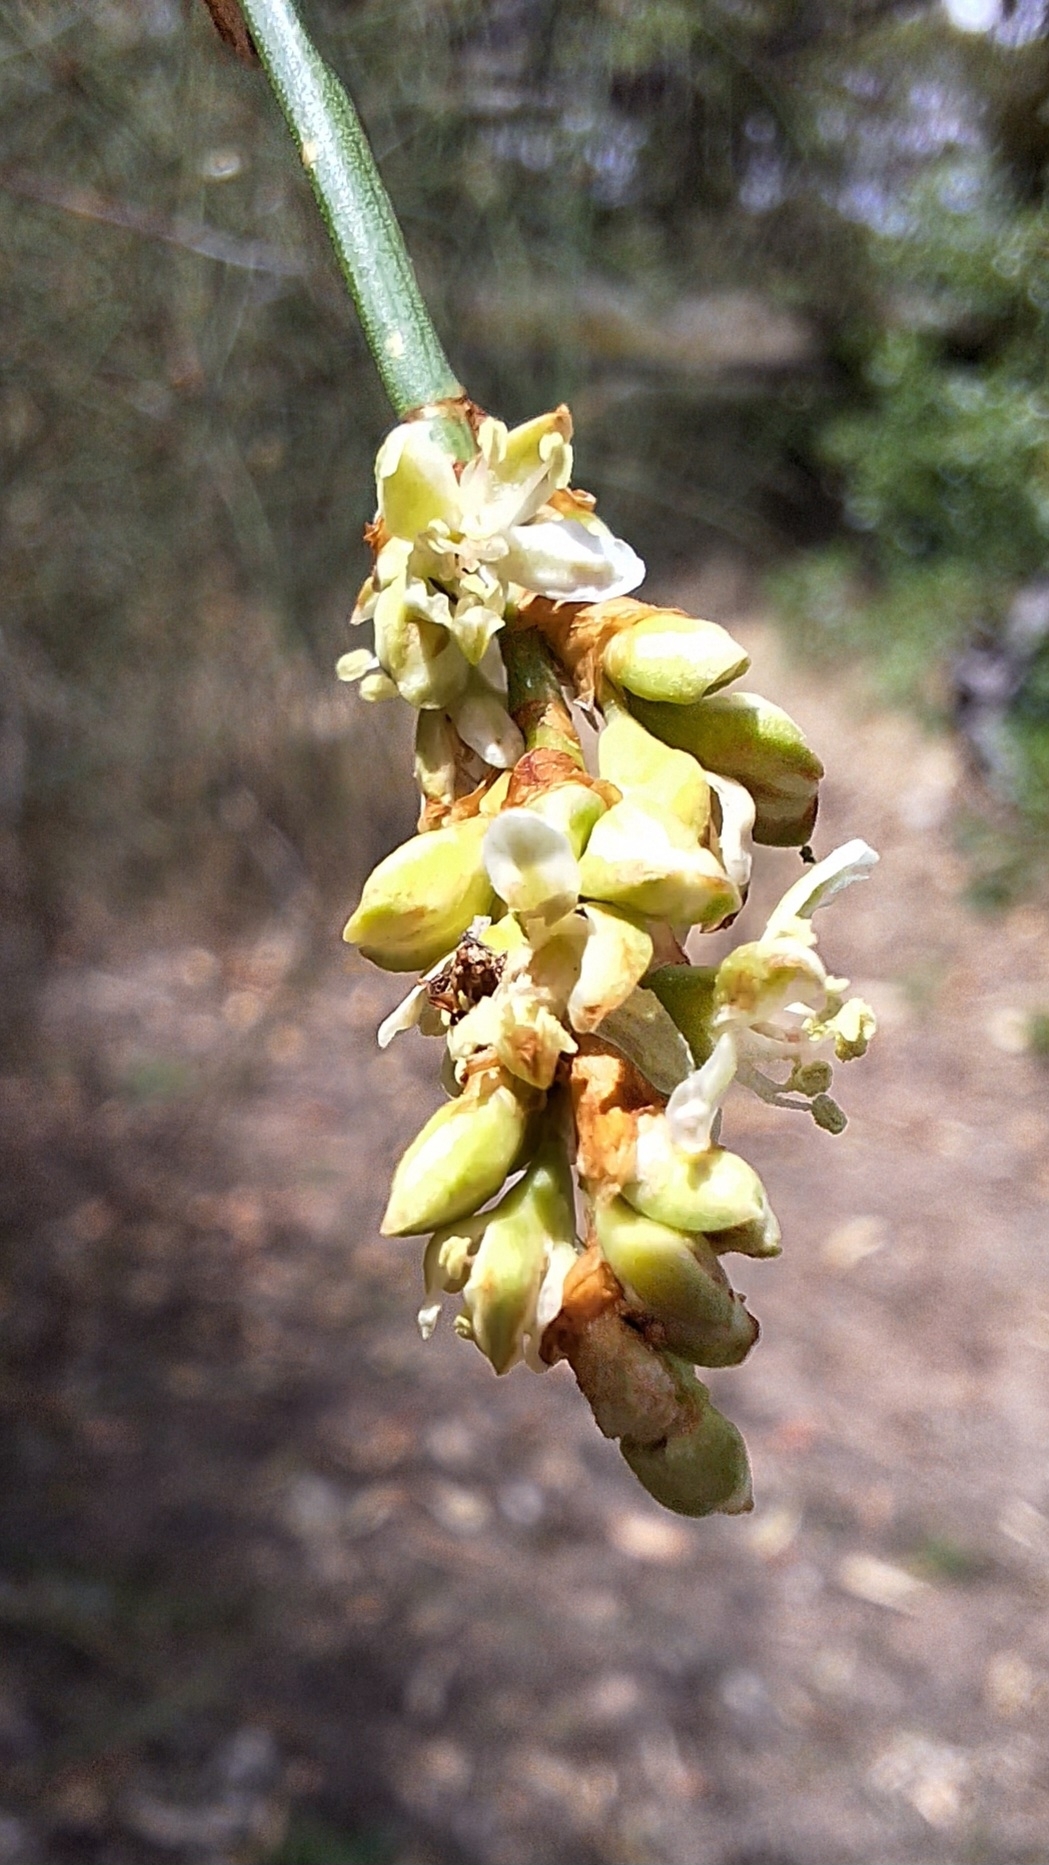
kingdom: Plantae
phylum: Tracheophyta
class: Magnoliopsida
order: Caryophyllales
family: Polygonaceae
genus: Duma
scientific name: Duma florulenta
